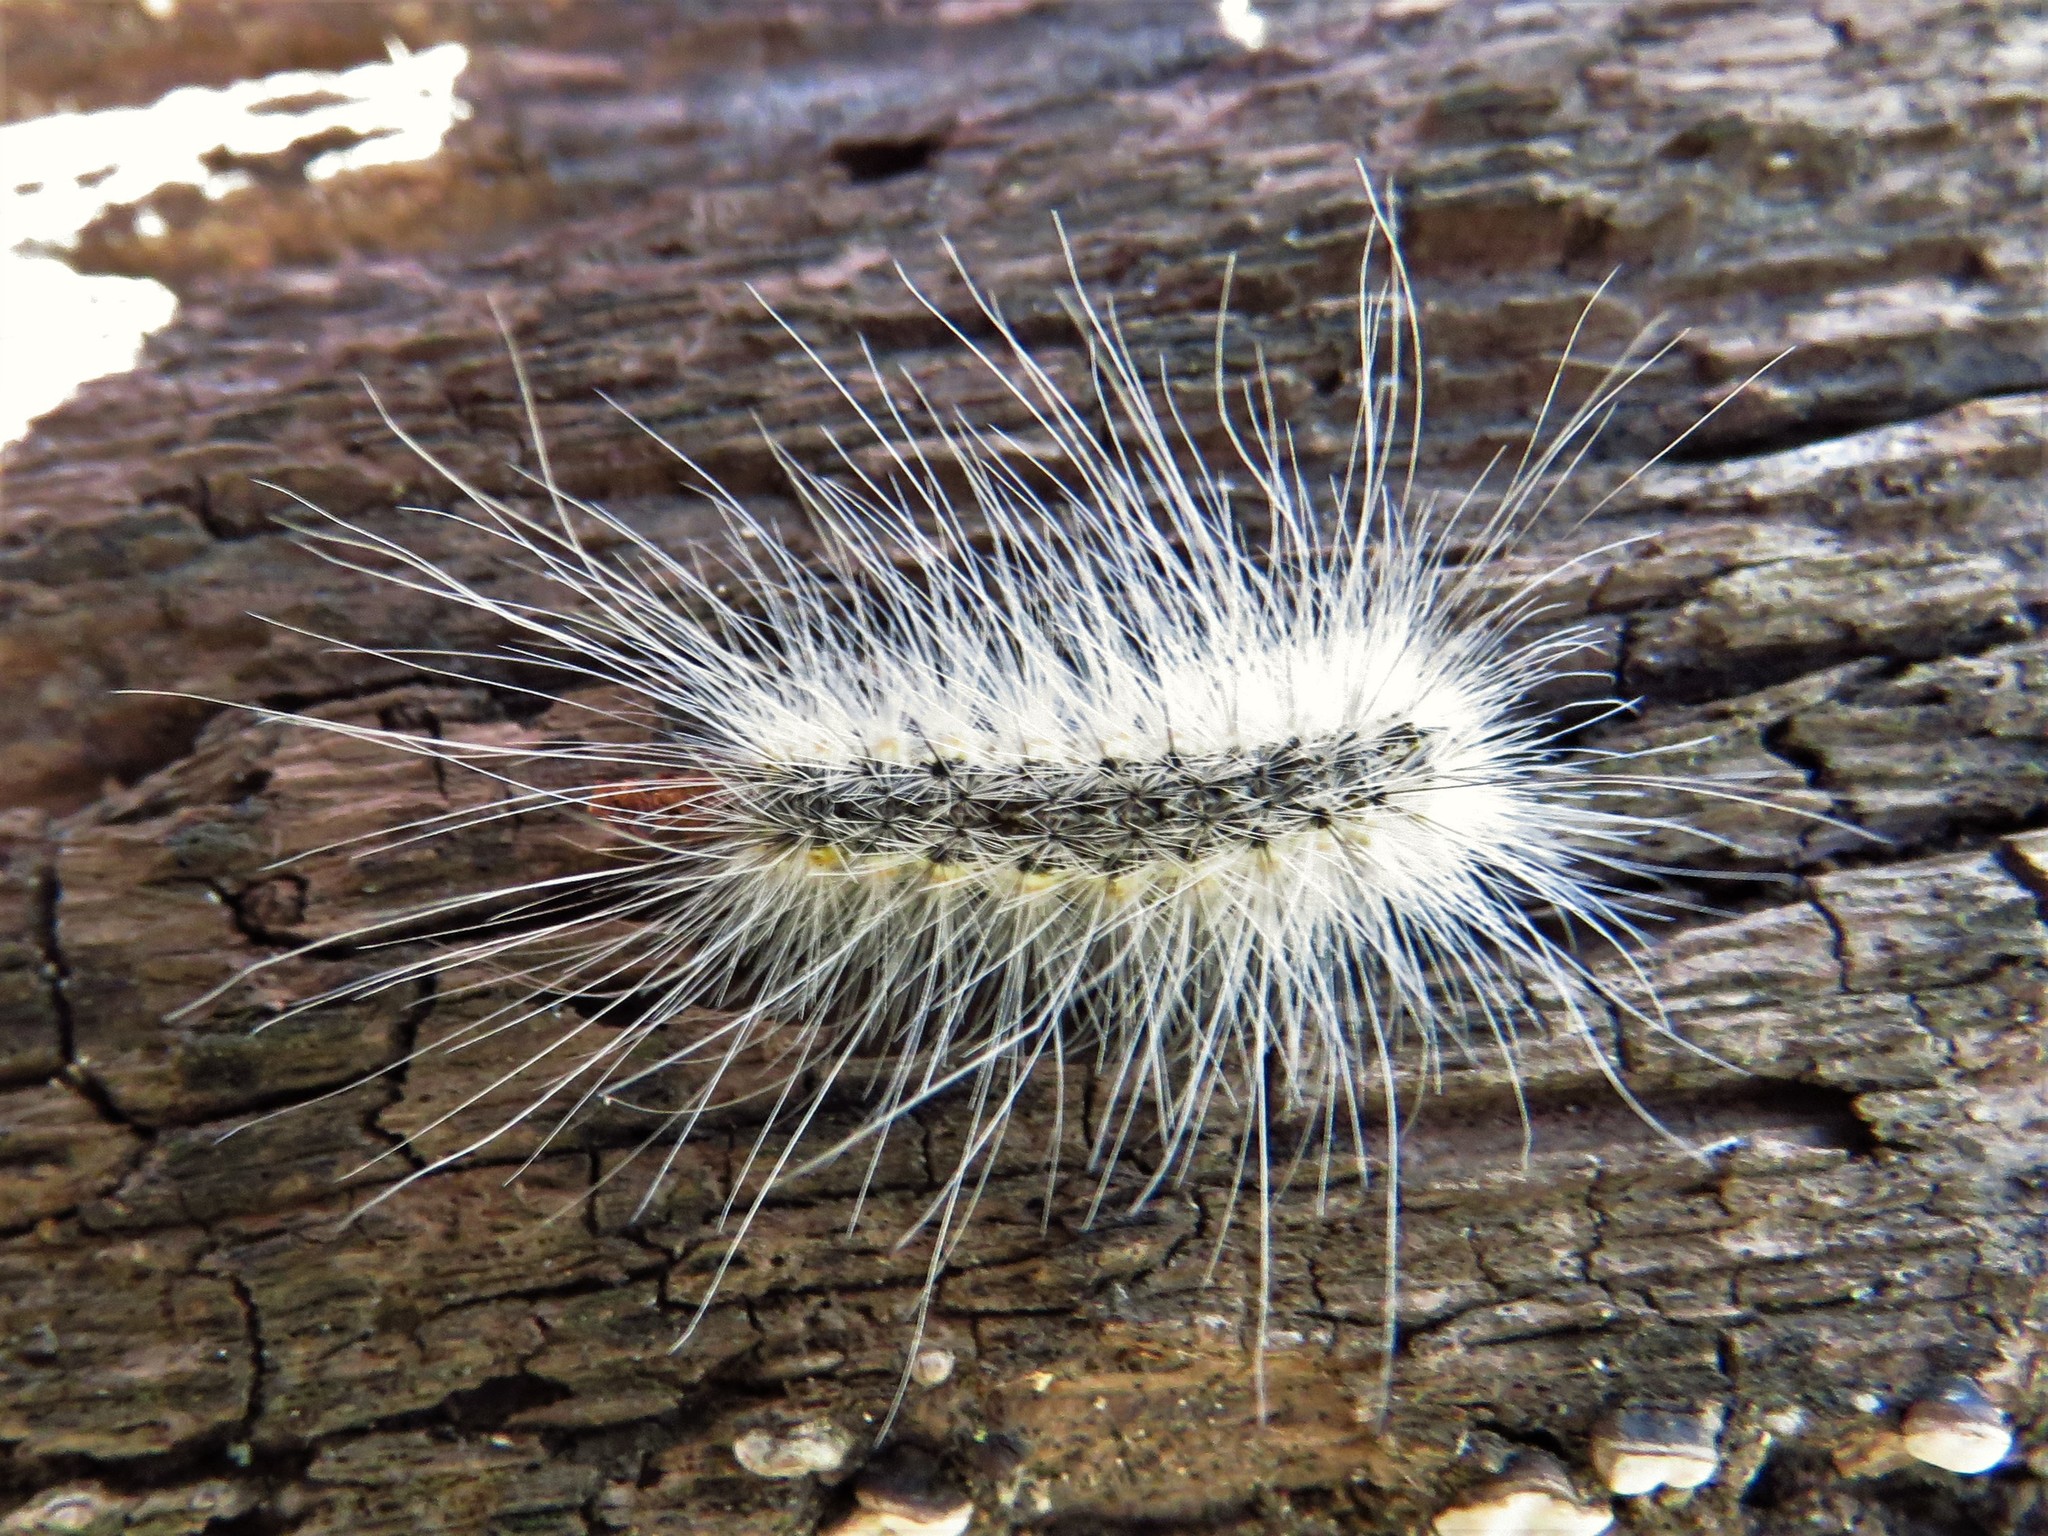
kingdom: Animalia
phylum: Arthropoda
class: Insecta
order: Lepidoptera
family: Erebidae
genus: Hyphantria
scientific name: Hyphantria cunea
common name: American white moth
